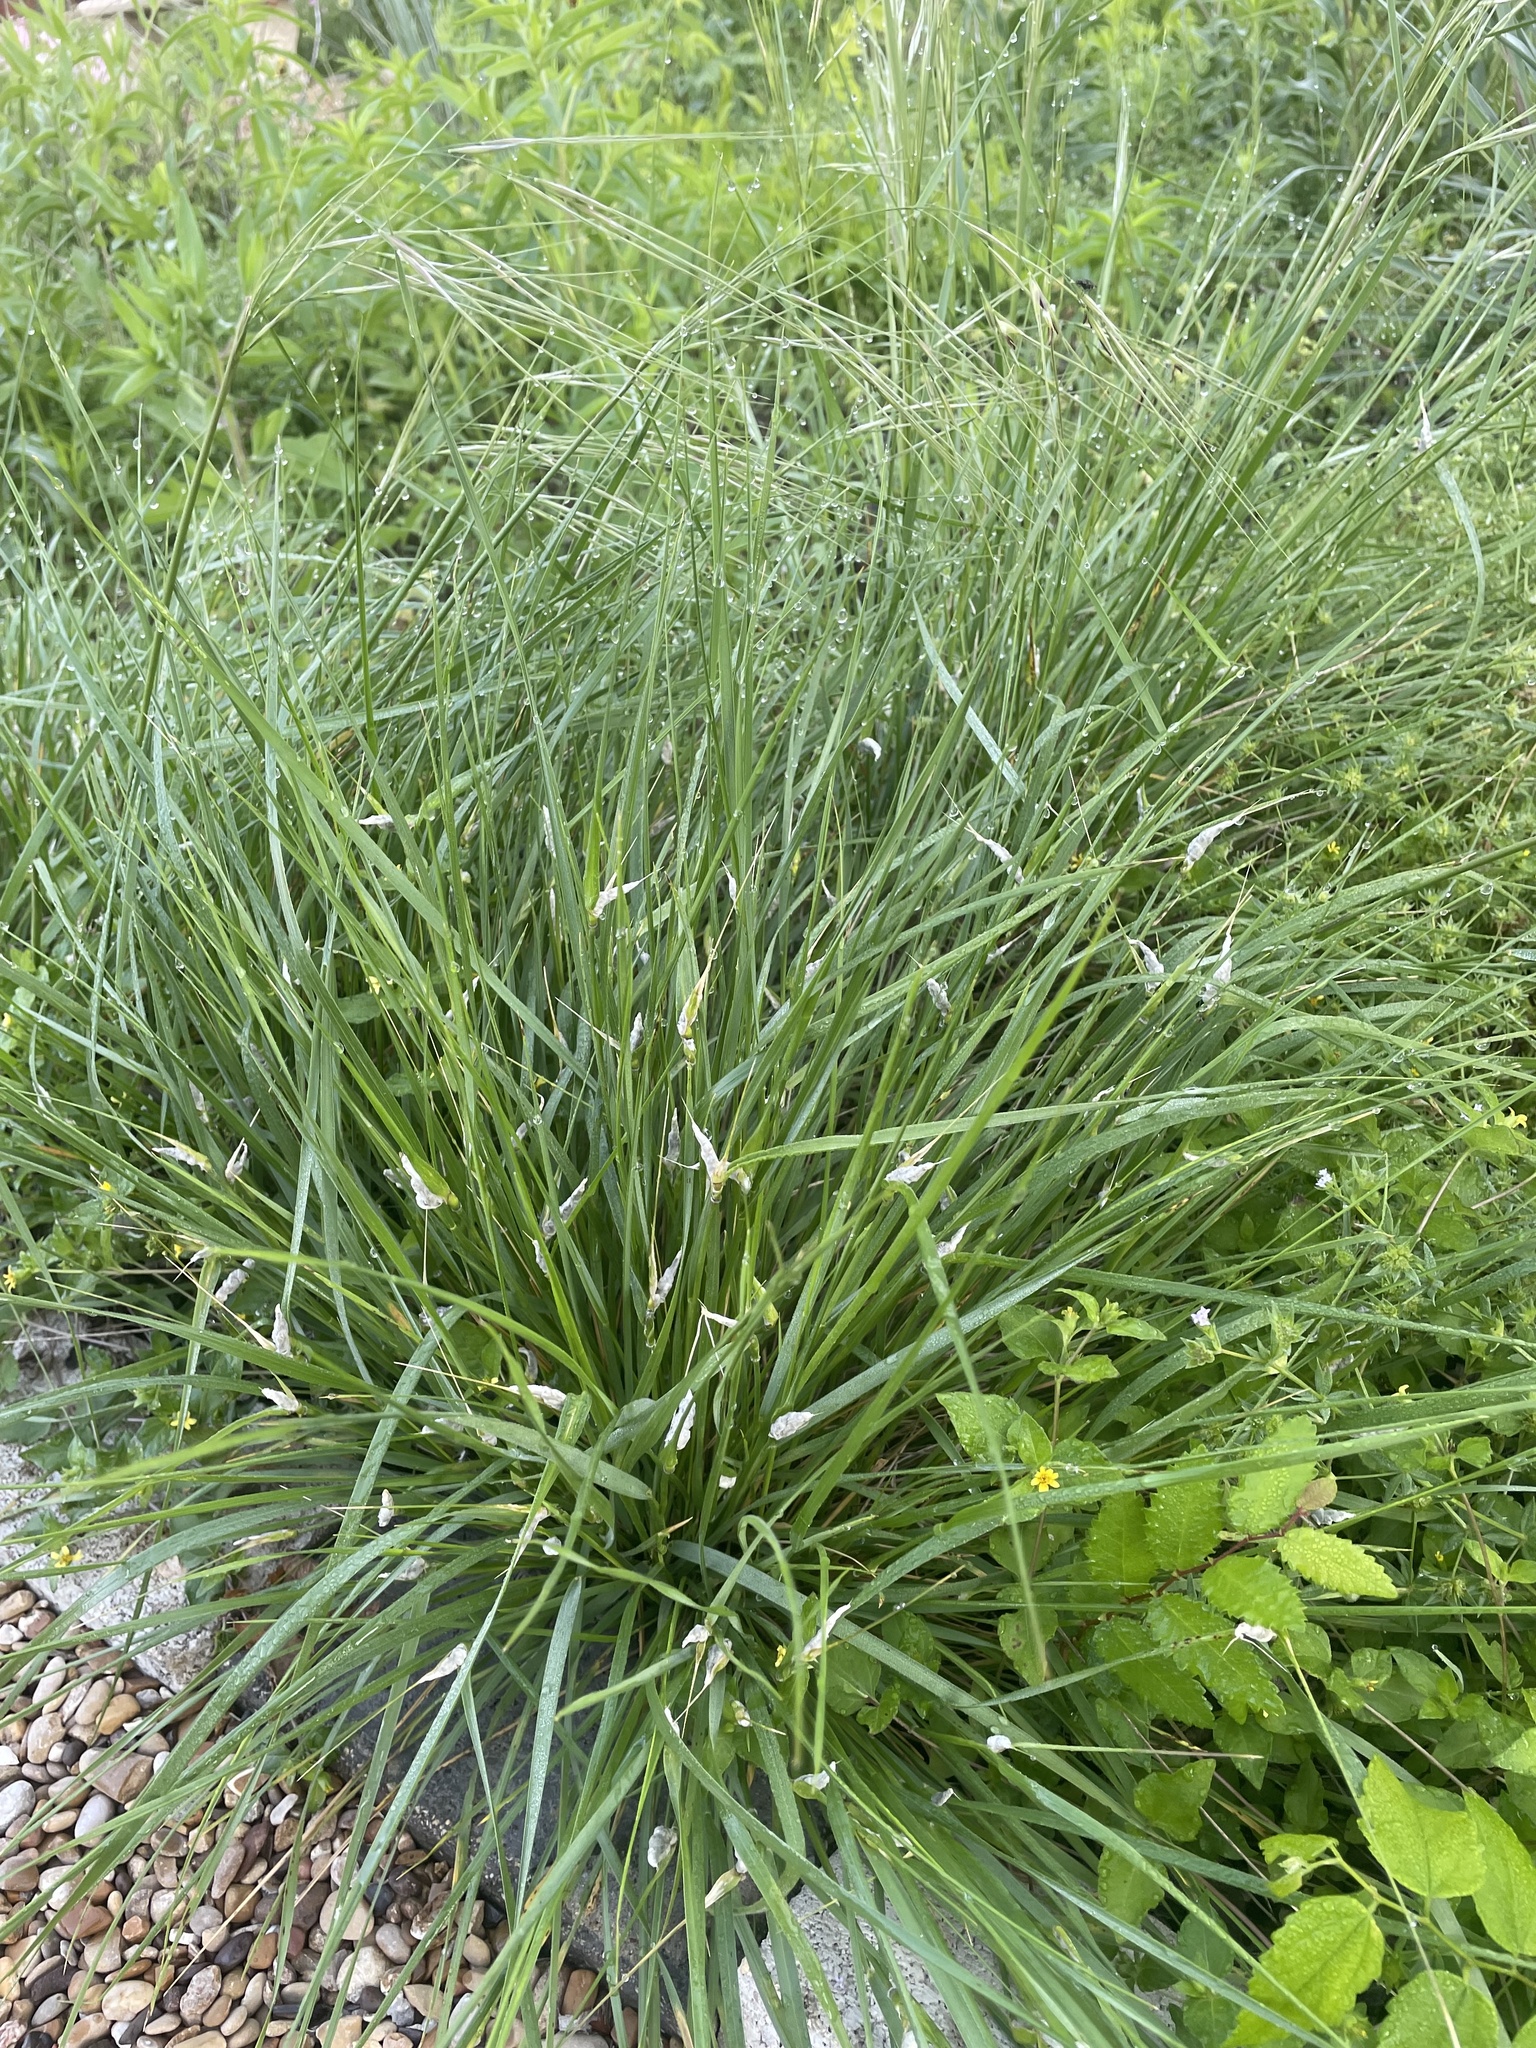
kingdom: Fungi
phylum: Ascomycota
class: Sordariomycetes
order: Hypocreales
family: Clavicipitaceae
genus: Atkinsonella
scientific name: Atkinsonella texensis
